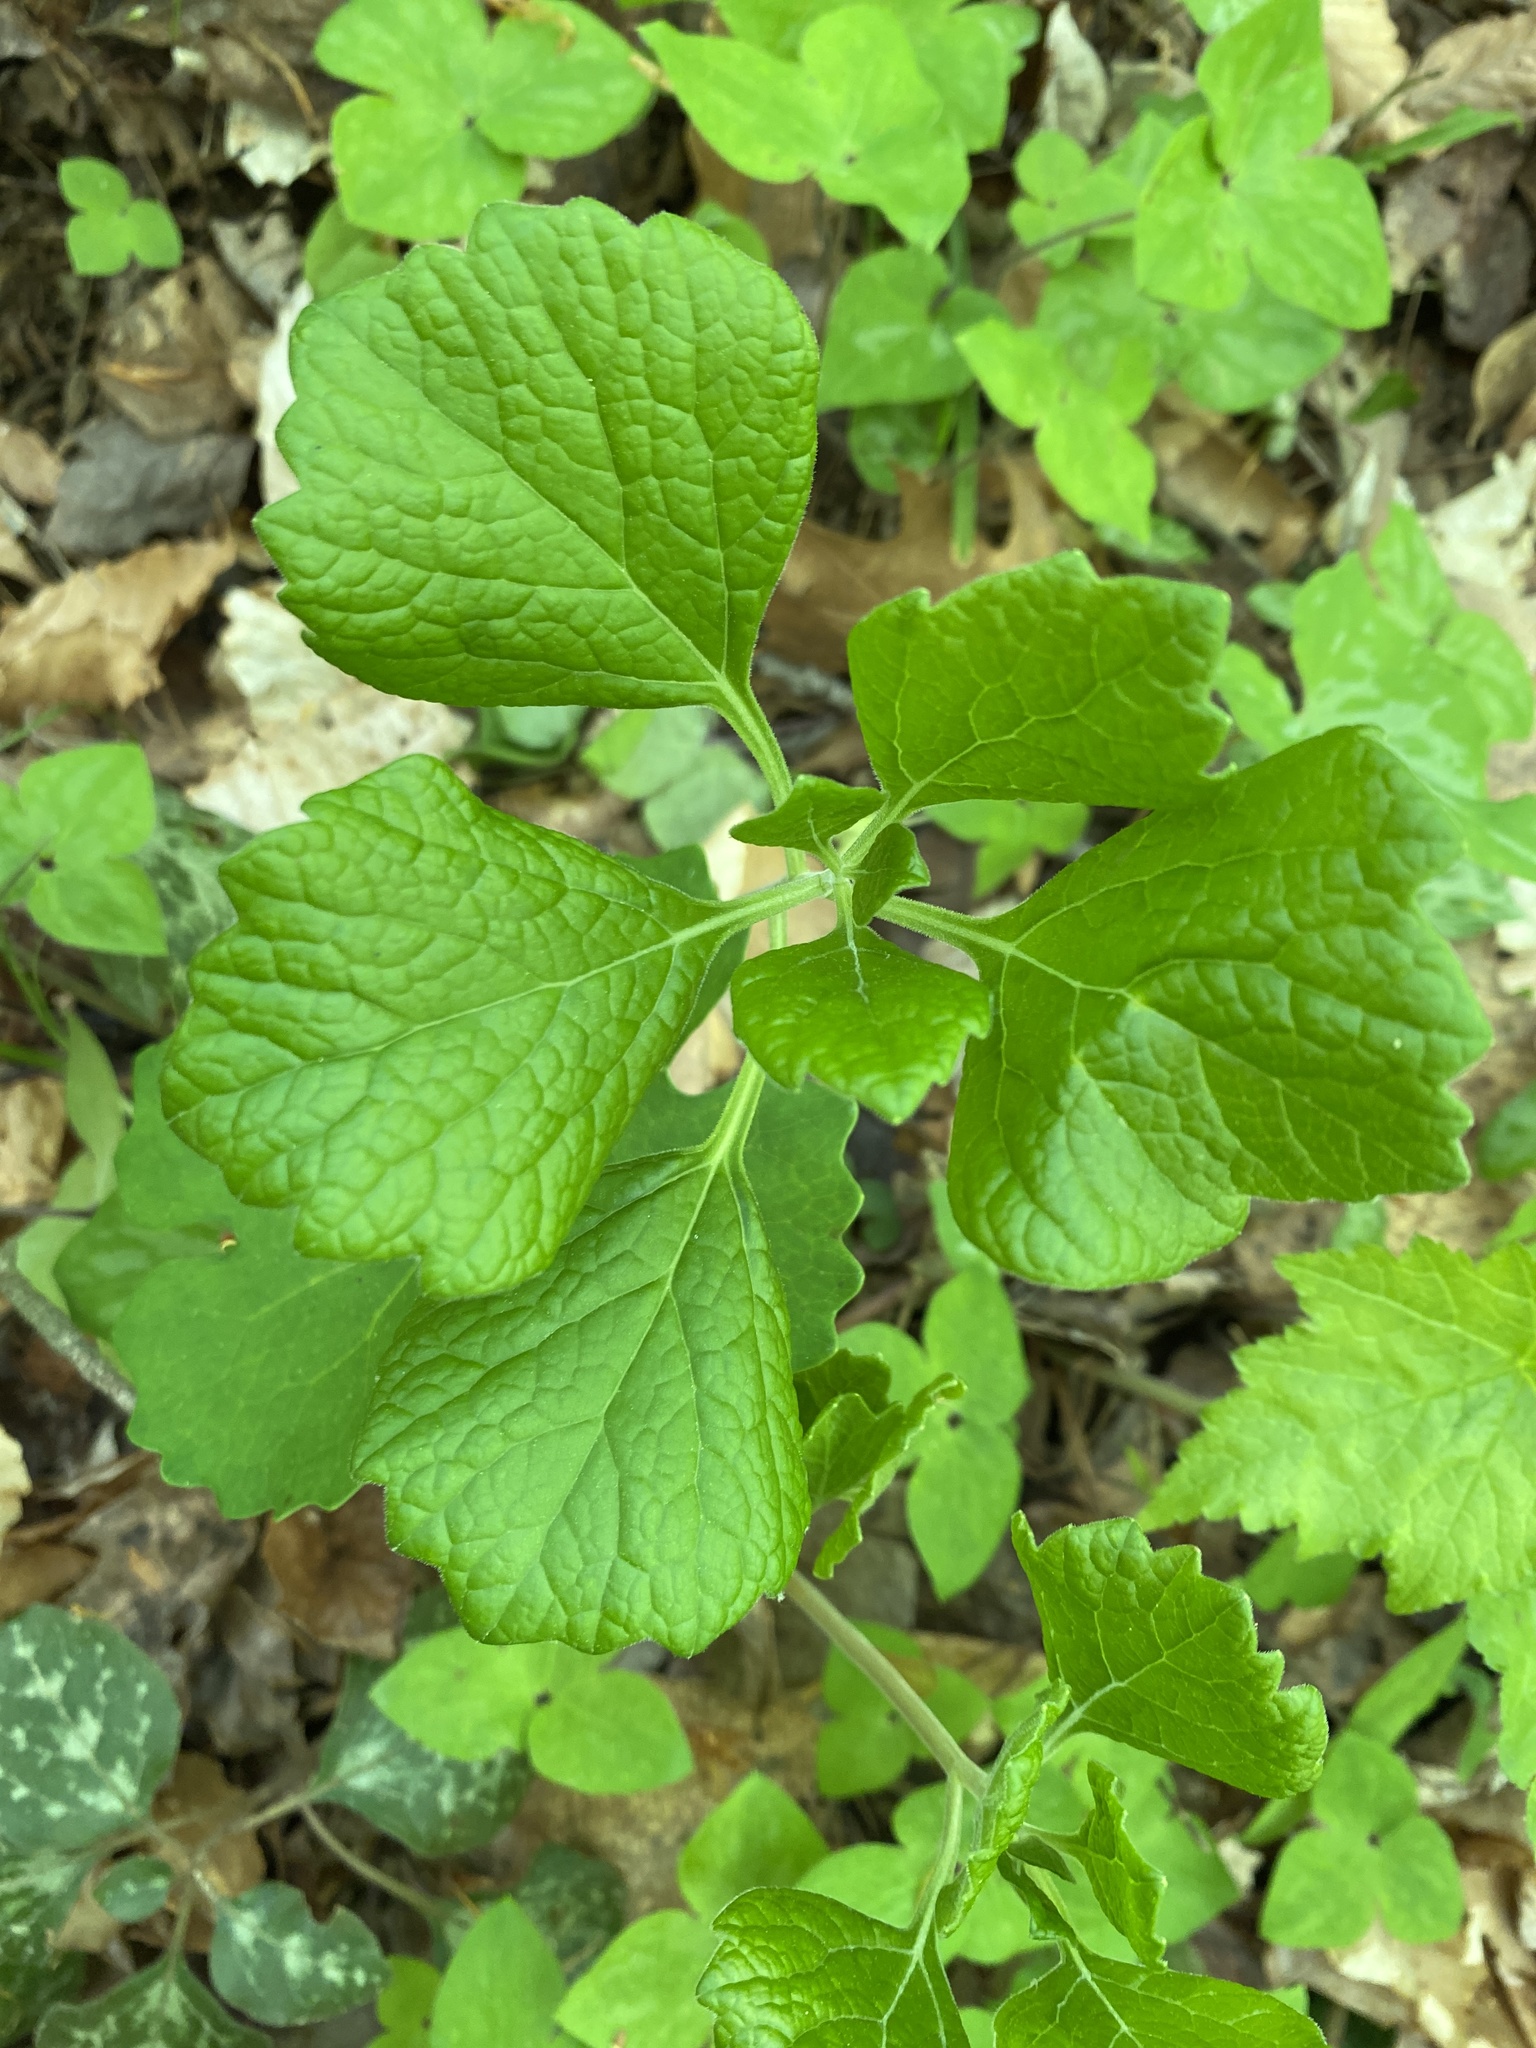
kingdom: Plantae
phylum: Tracheophyta
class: Magnoliopsida
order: Buxales
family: Buxaceae
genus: Pachysandra
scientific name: Pachysandra procumbens
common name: Mountain-spurge
